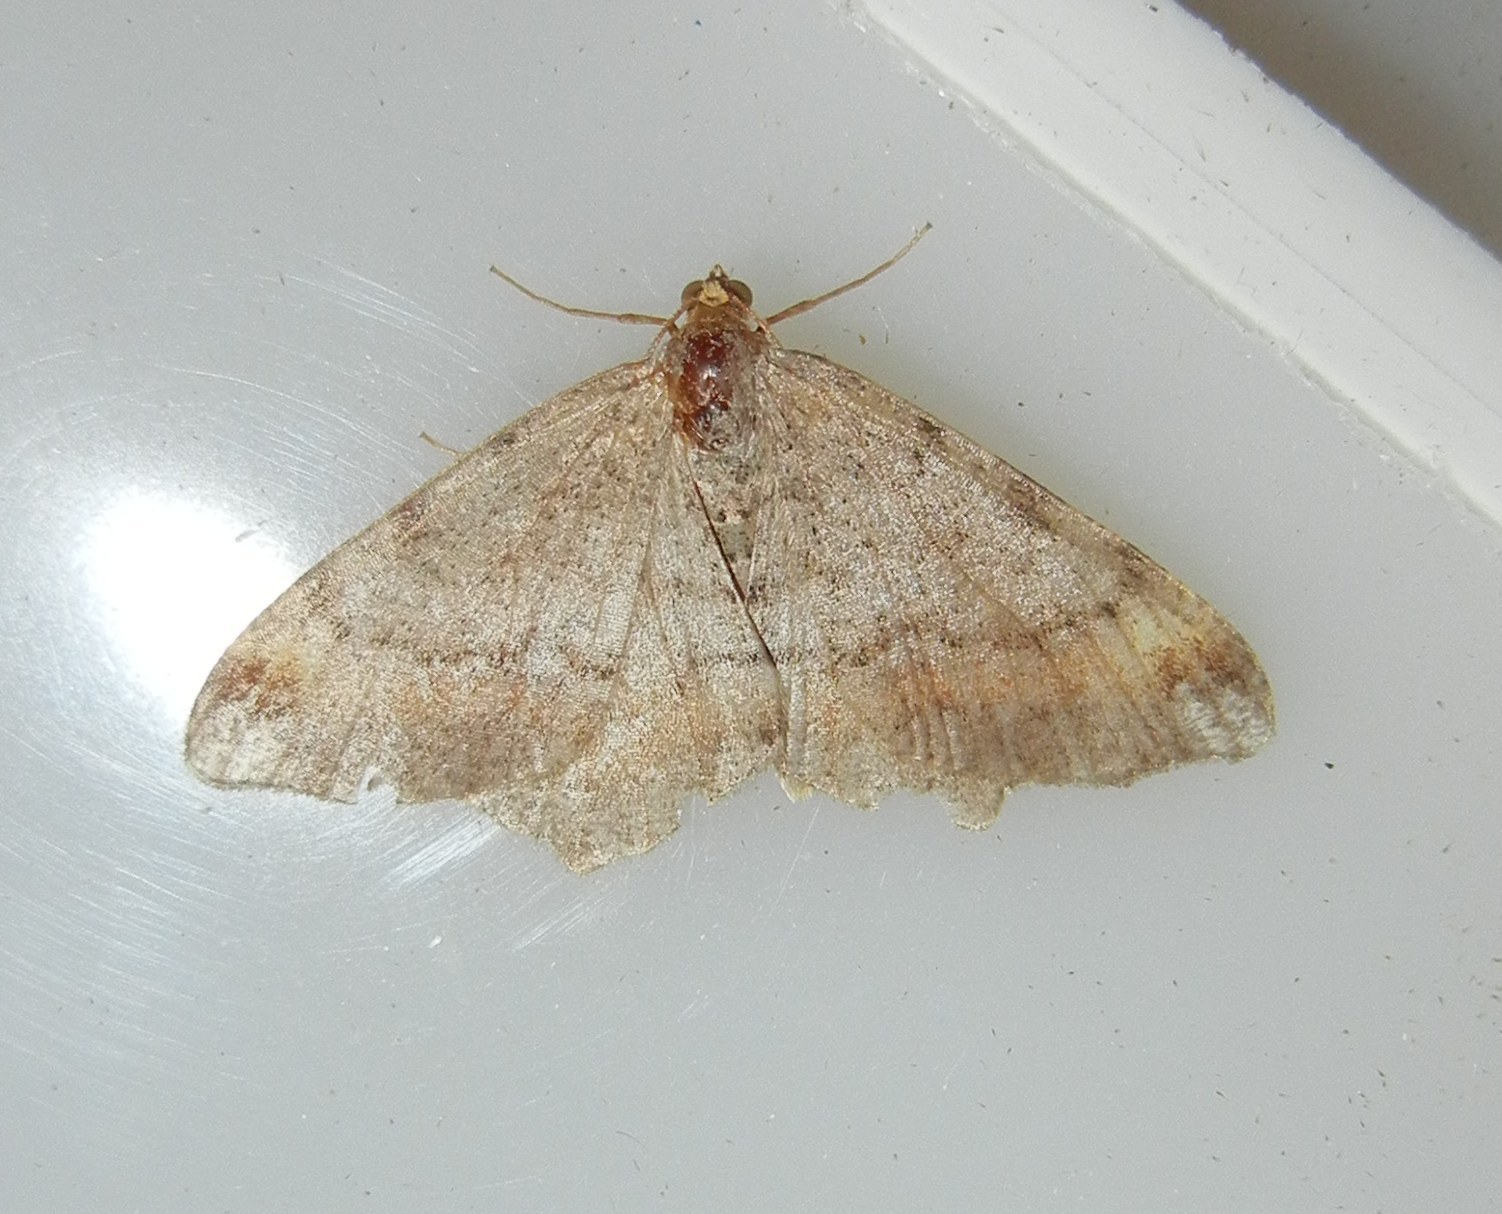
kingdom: Animalia
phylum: Arthropoda
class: Insecta
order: Lepidoptera
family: Geometridae
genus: Macaria
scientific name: Macaria liturata
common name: Tawny-barred angle
